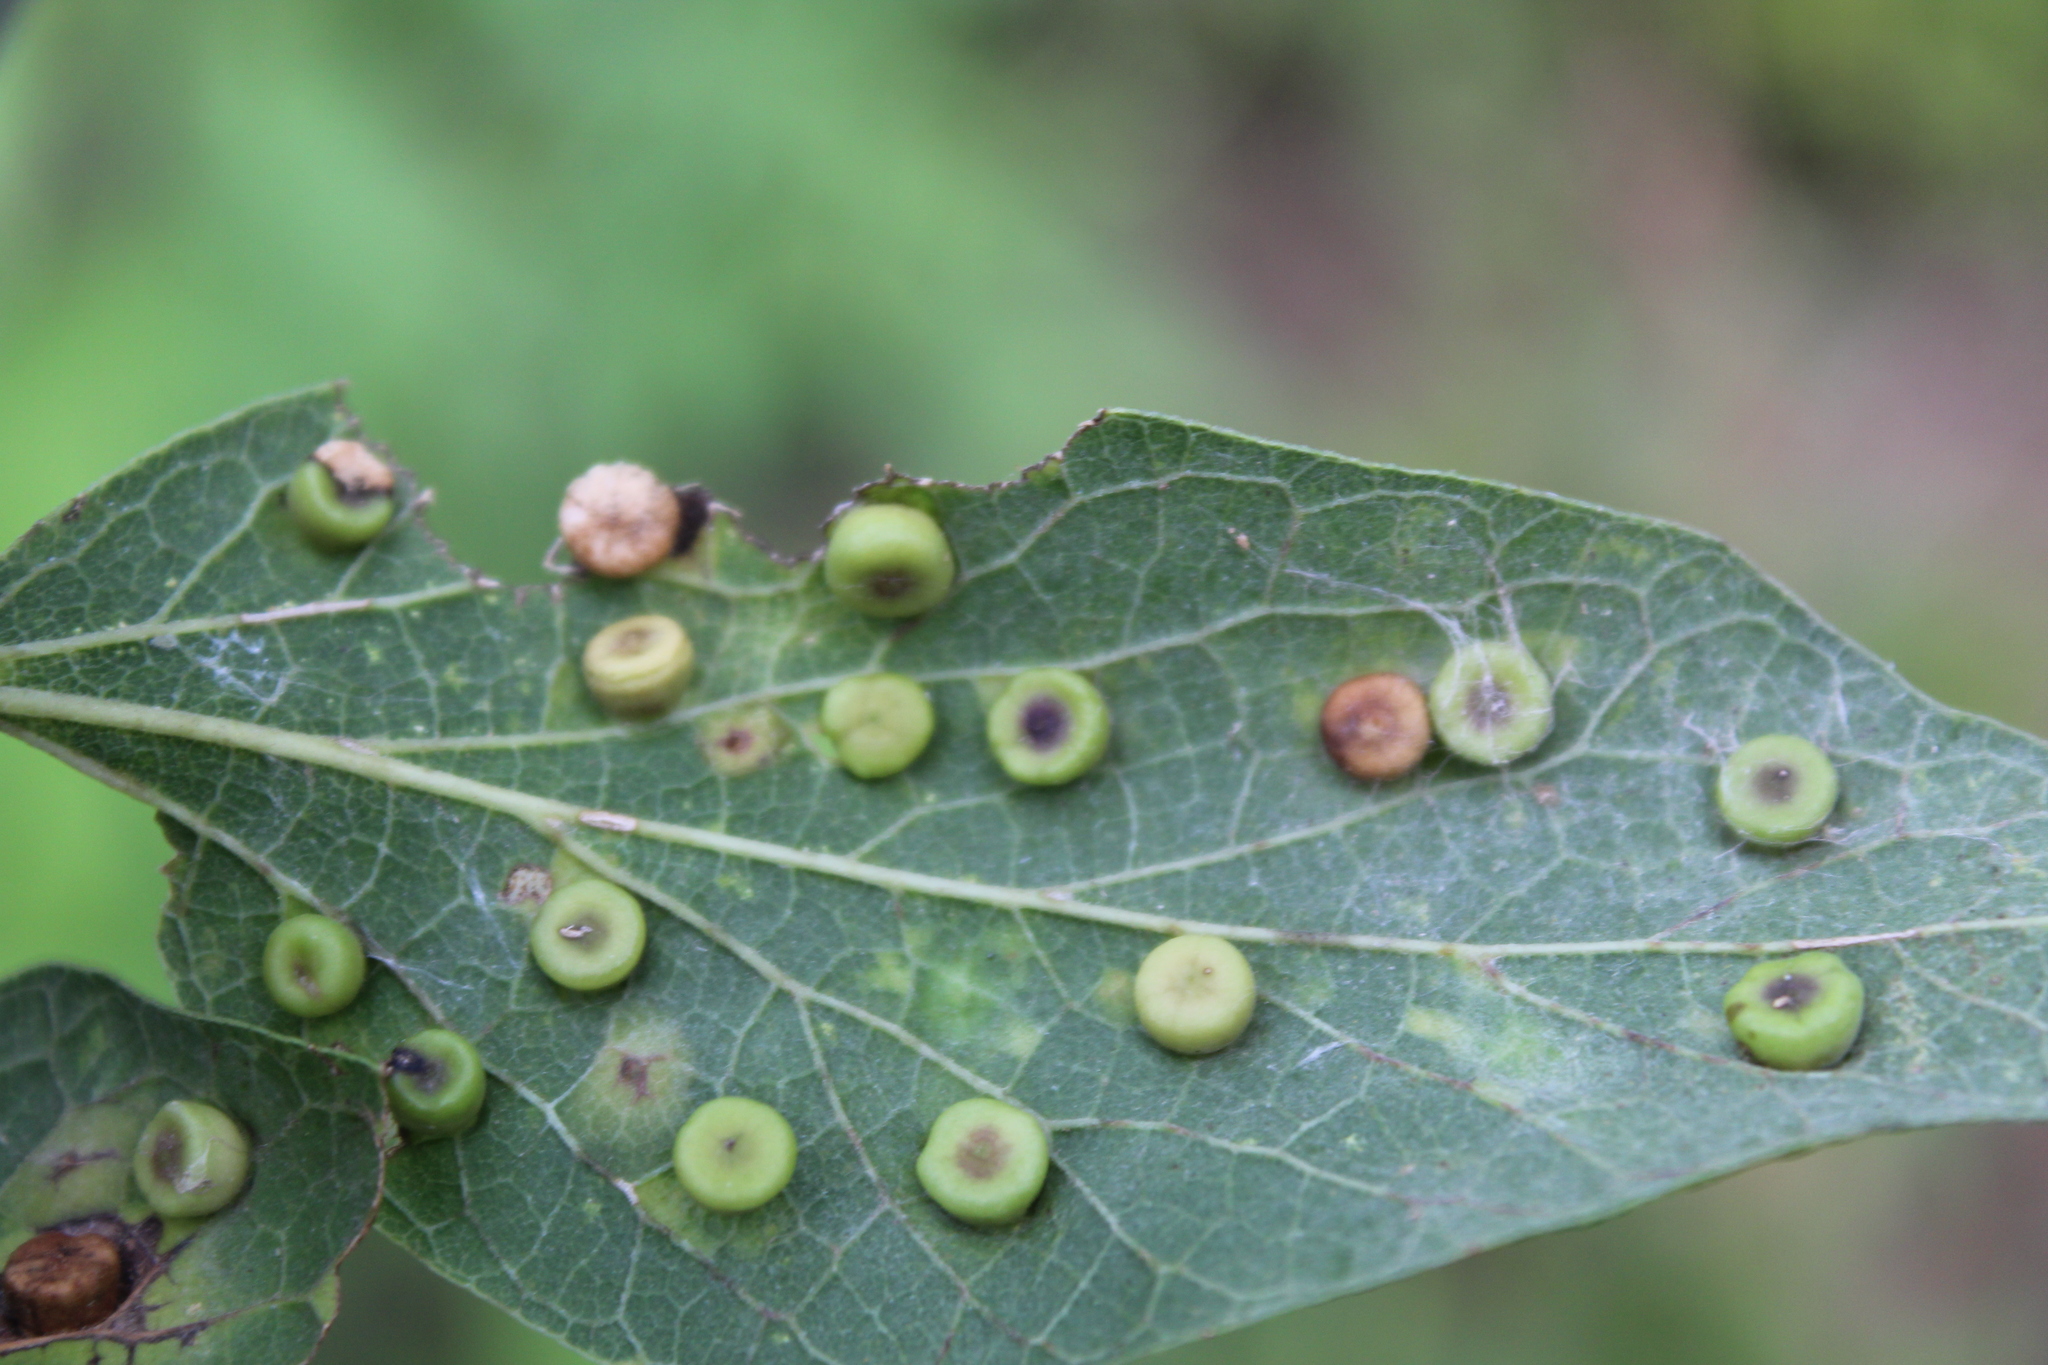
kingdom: Animalia
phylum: Arthropoda
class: Insecta
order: Hemiptera
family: Aphalaridae
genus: Pachypsylla
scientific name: Pachypsylla celtidismamma
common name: Hackberry nipplegall psyllid
